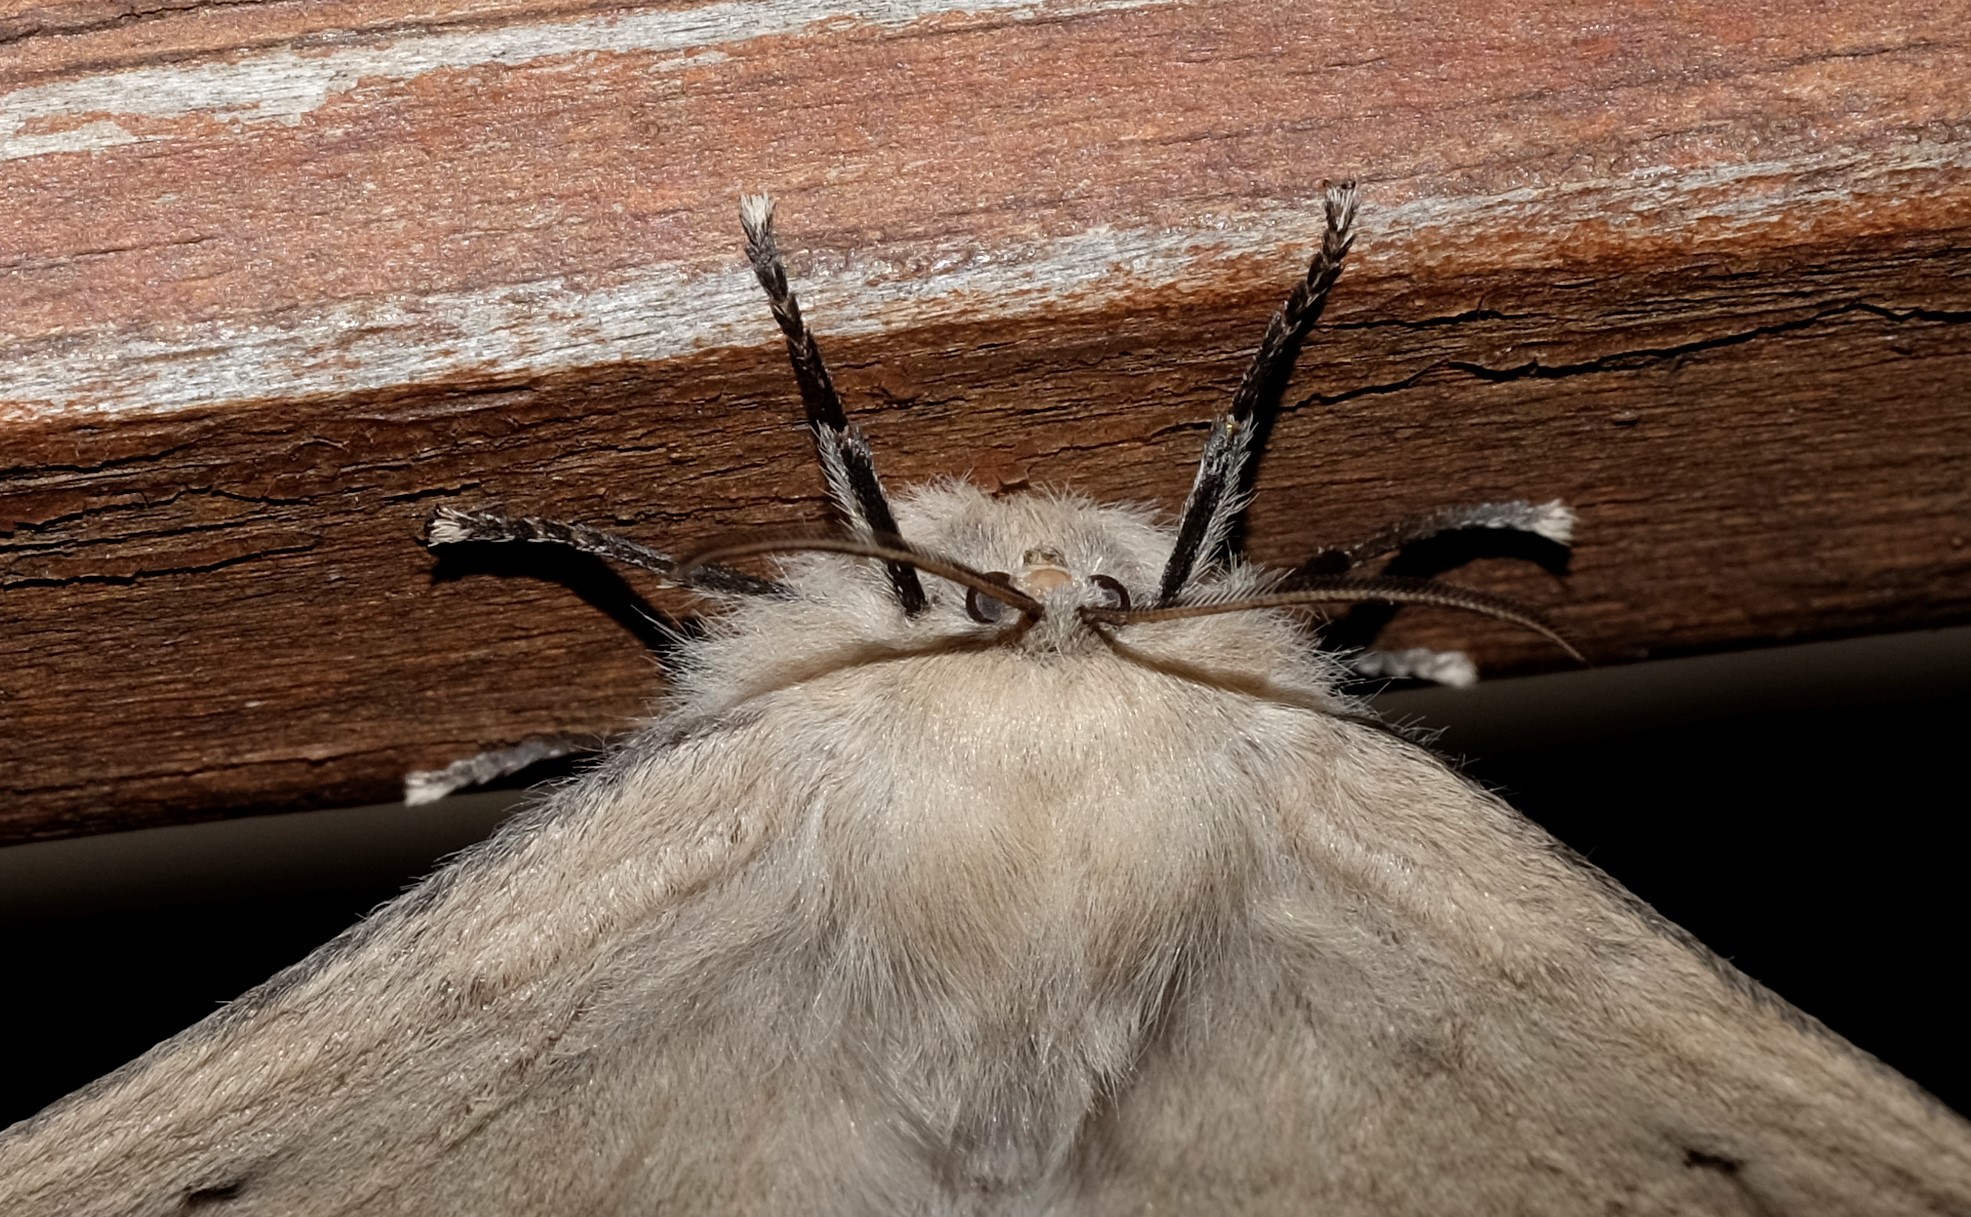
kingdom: Animalia
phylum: Arthropoda
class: Insecta
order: Lepidoptera
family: Anthelidae
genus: Chenuala
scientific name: Chenuala heliaspis
